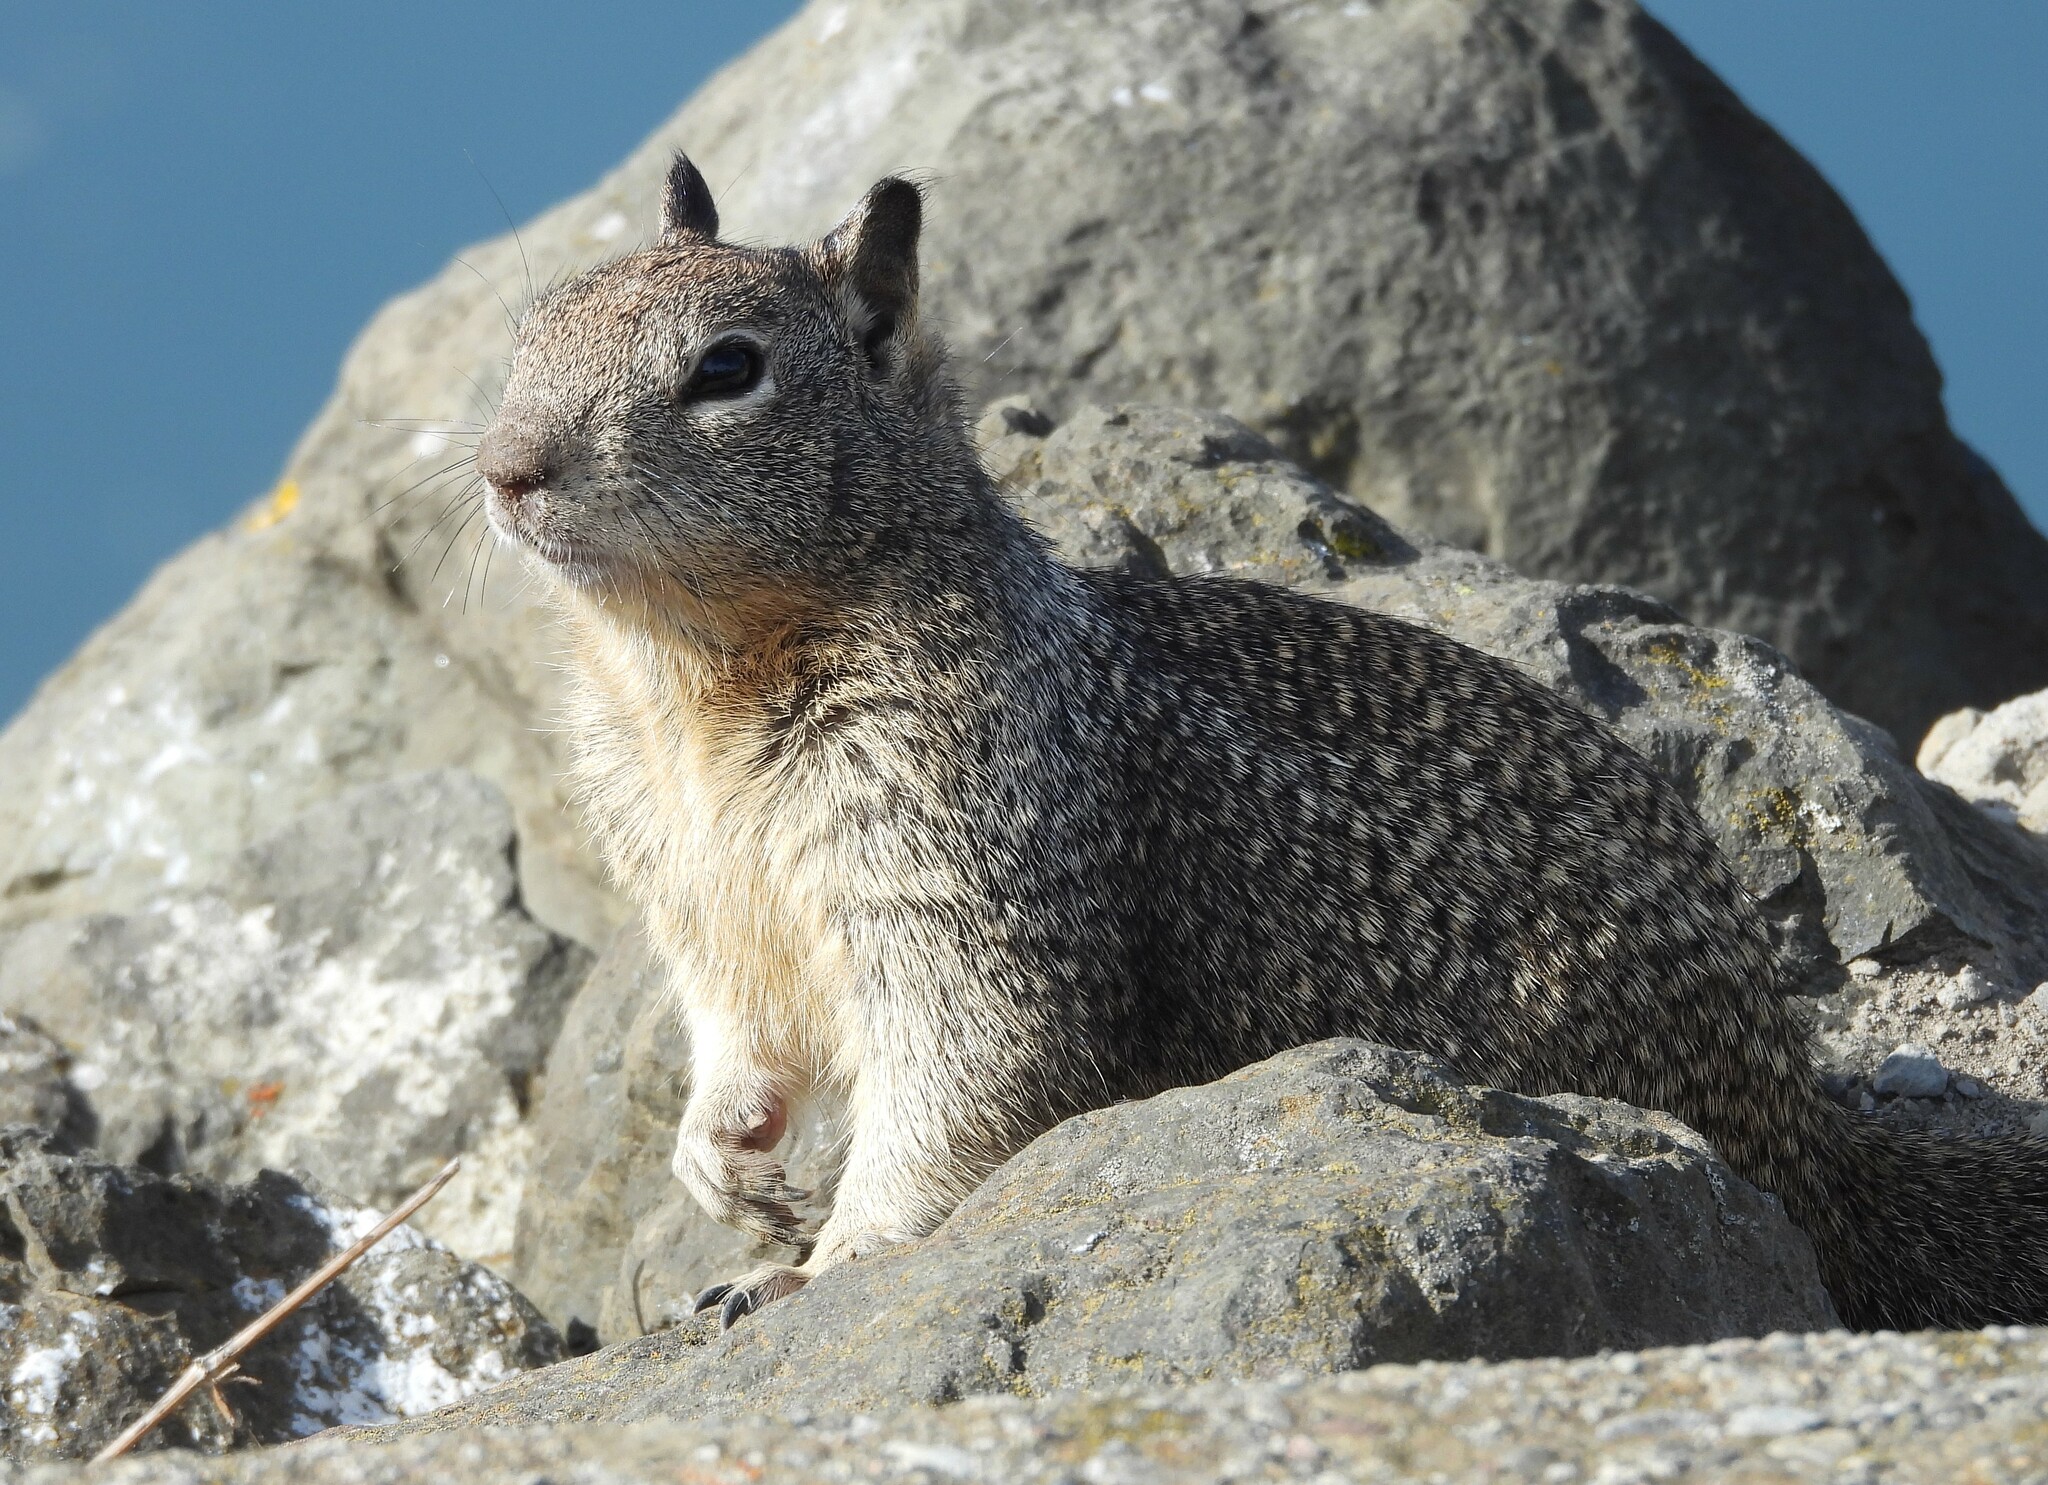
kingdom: Animalia
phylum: Chordata
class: Mammalia
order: Rodentia
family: Sciuridae
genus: Otospermophilus
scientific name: Otospermophilus beecheyi
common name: California ground squirrel
